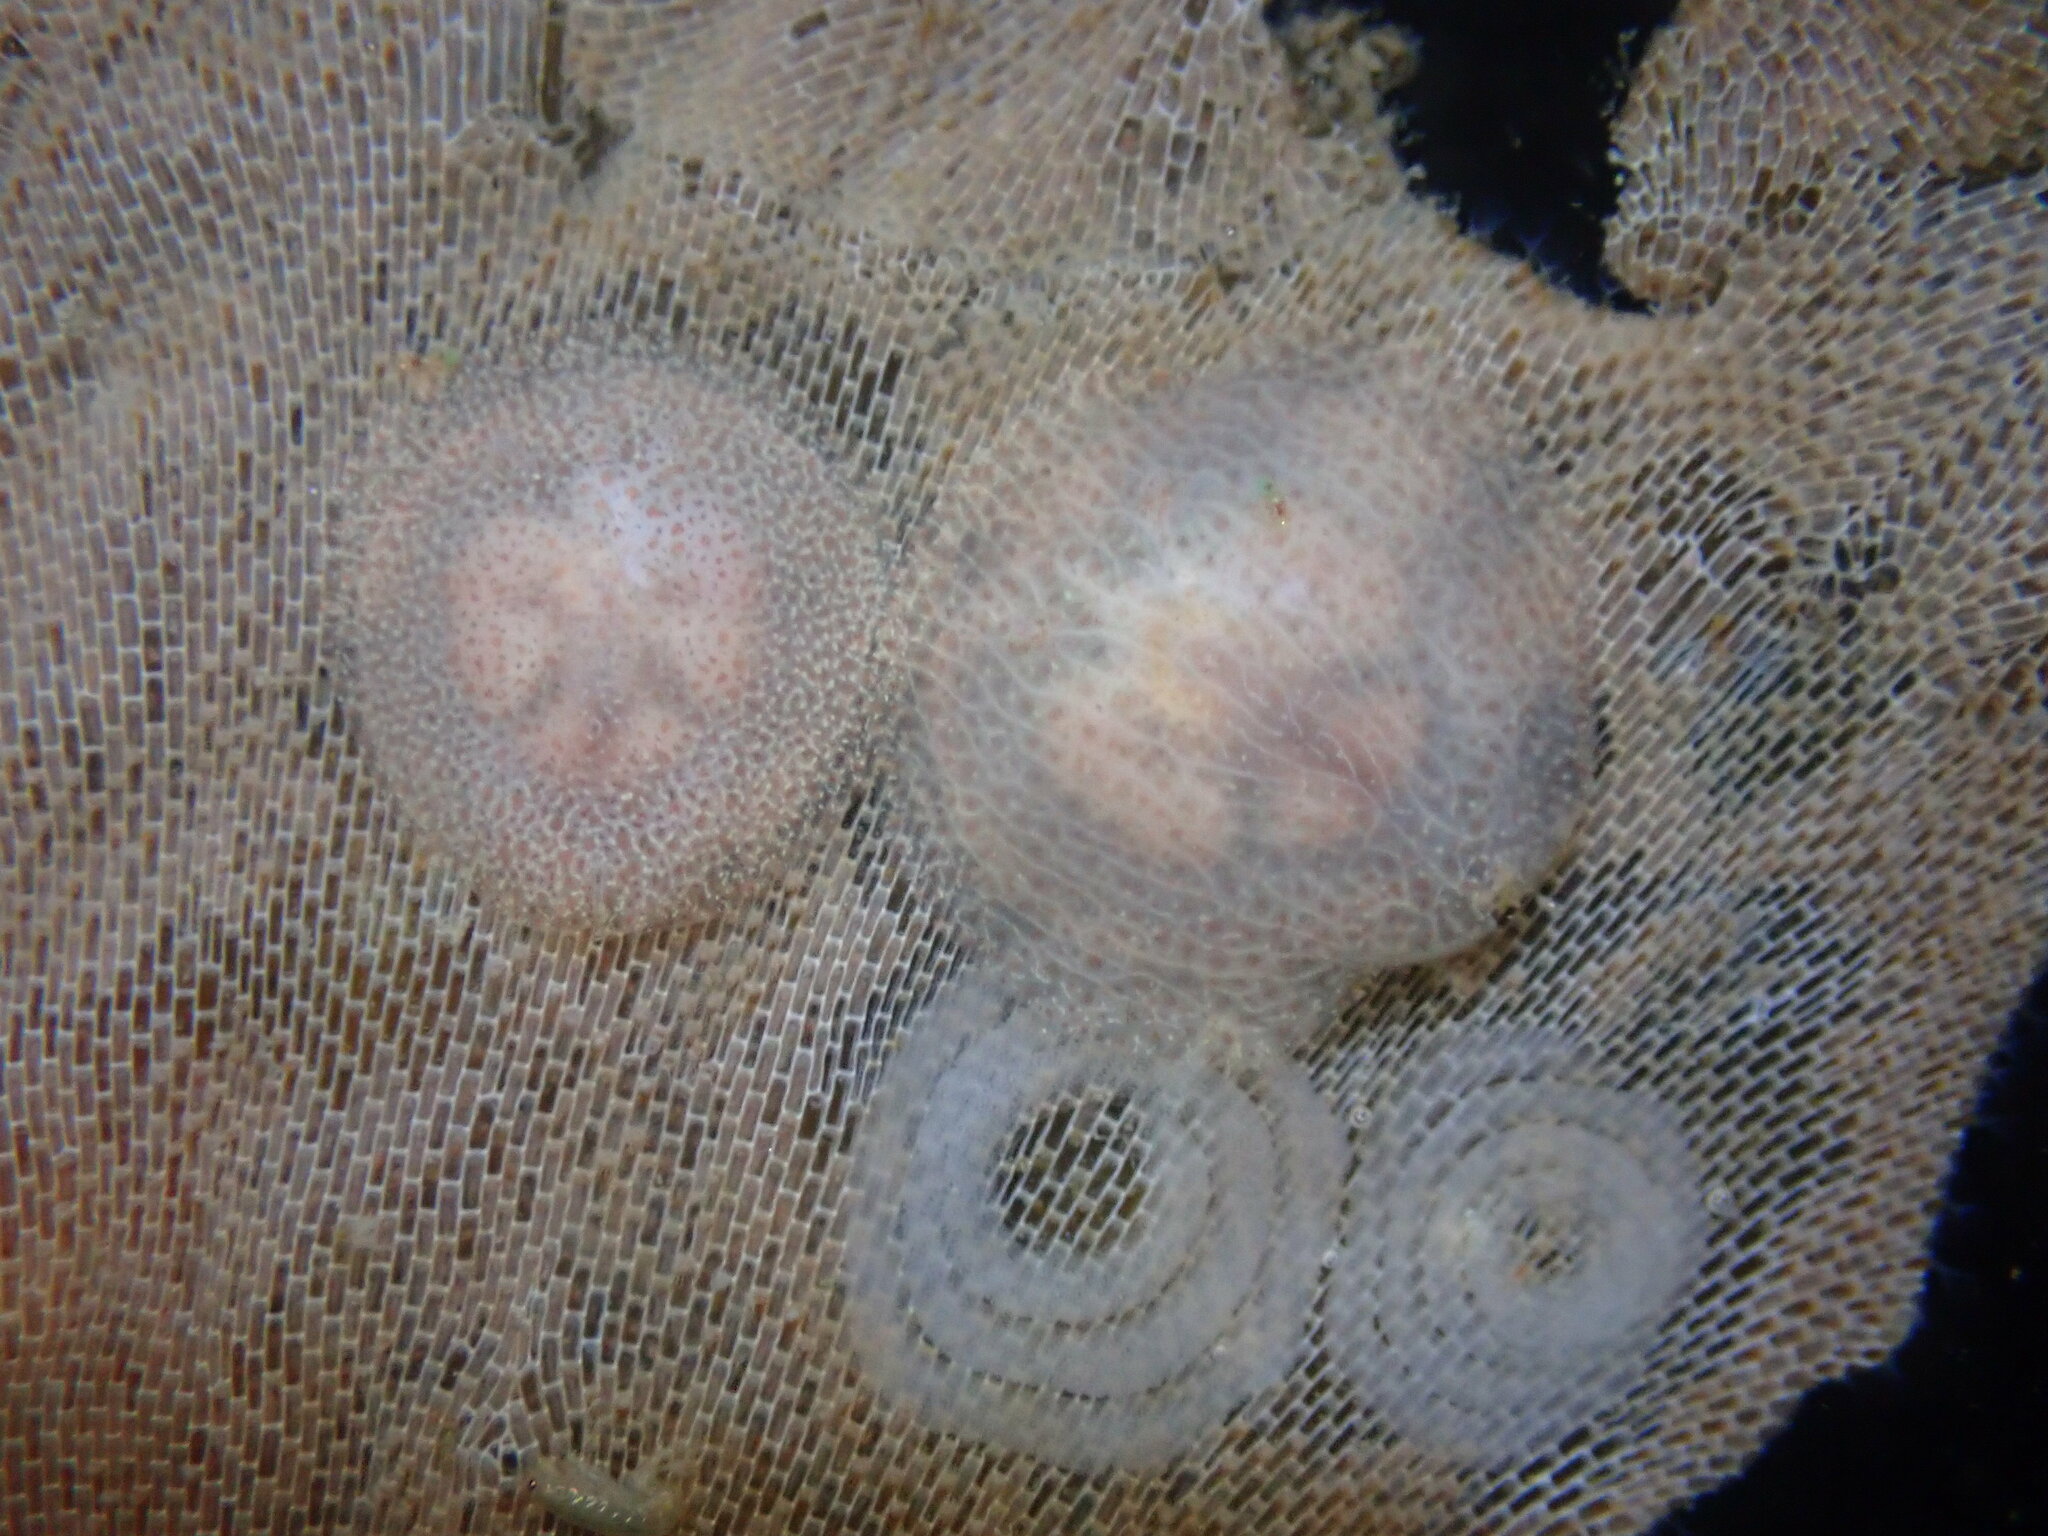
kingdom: Animalia
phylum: Mollusca
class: Gastropoda
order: Nudibranchia
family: Corambidae
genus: Corambe
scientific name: Corambe pacifica
